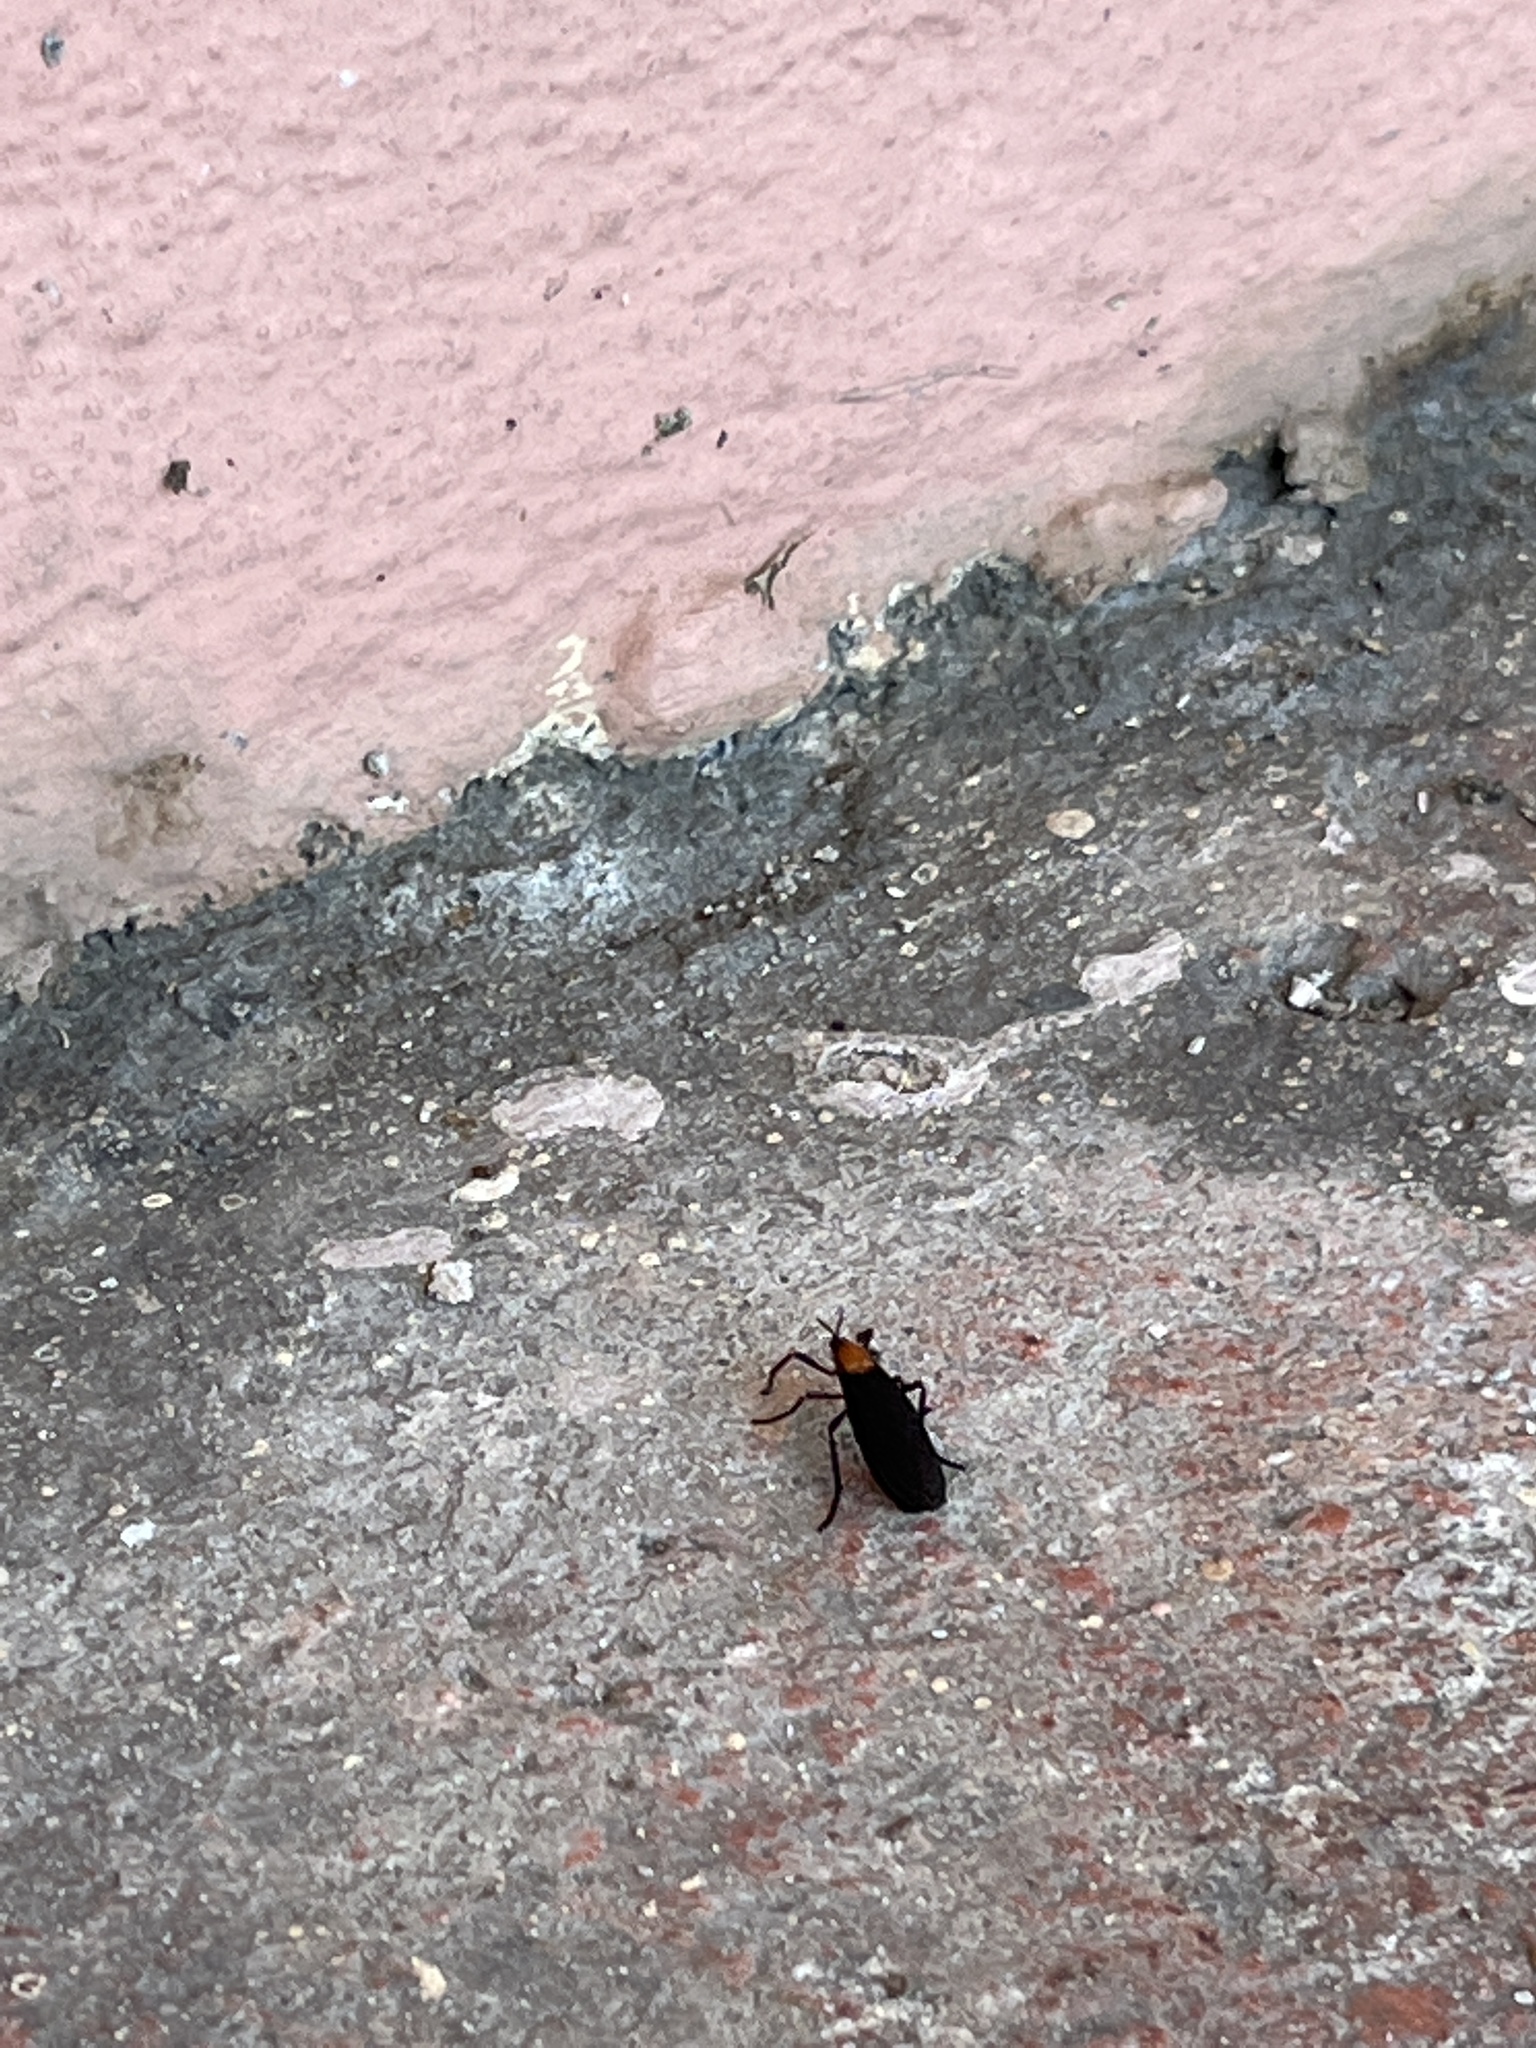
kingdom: Animalia
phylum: Arthropoda
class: Insecta
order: Diptera
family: Bibionidae
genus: Plecia
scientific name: Plecia nearctica
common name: March fly
